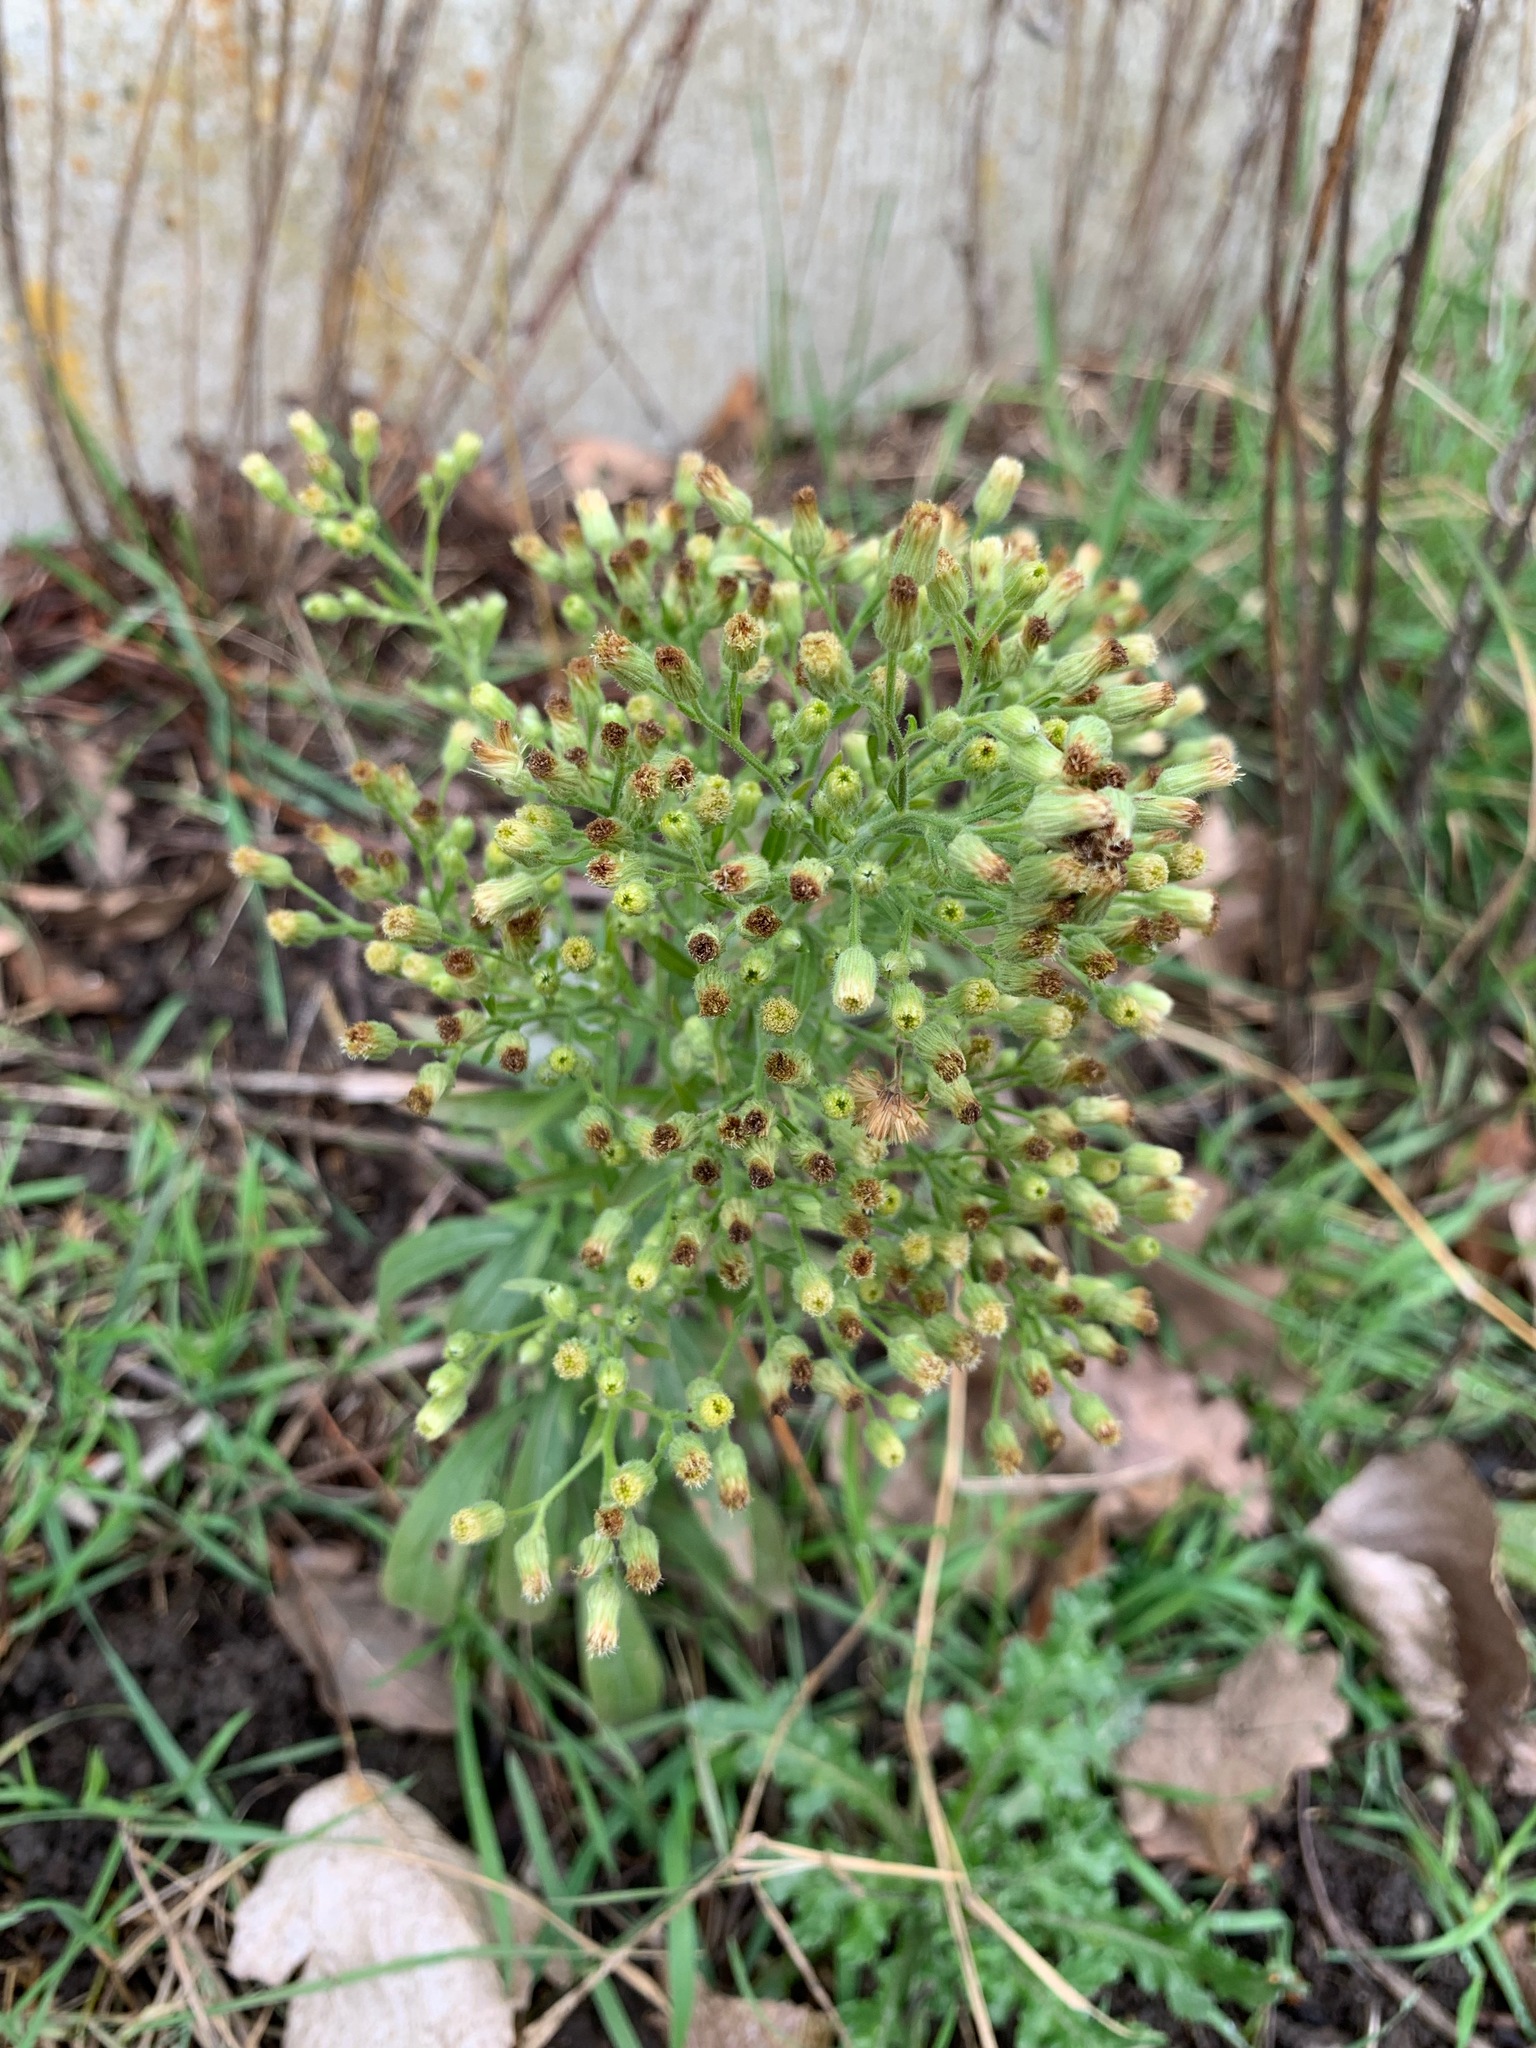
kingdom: Plantae
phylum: Tracheophyta
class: Magnoliopsida
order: Asterales
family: Asteraceae
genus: Erigeron
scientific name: Erigeron sumatrensis
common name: Daisy
